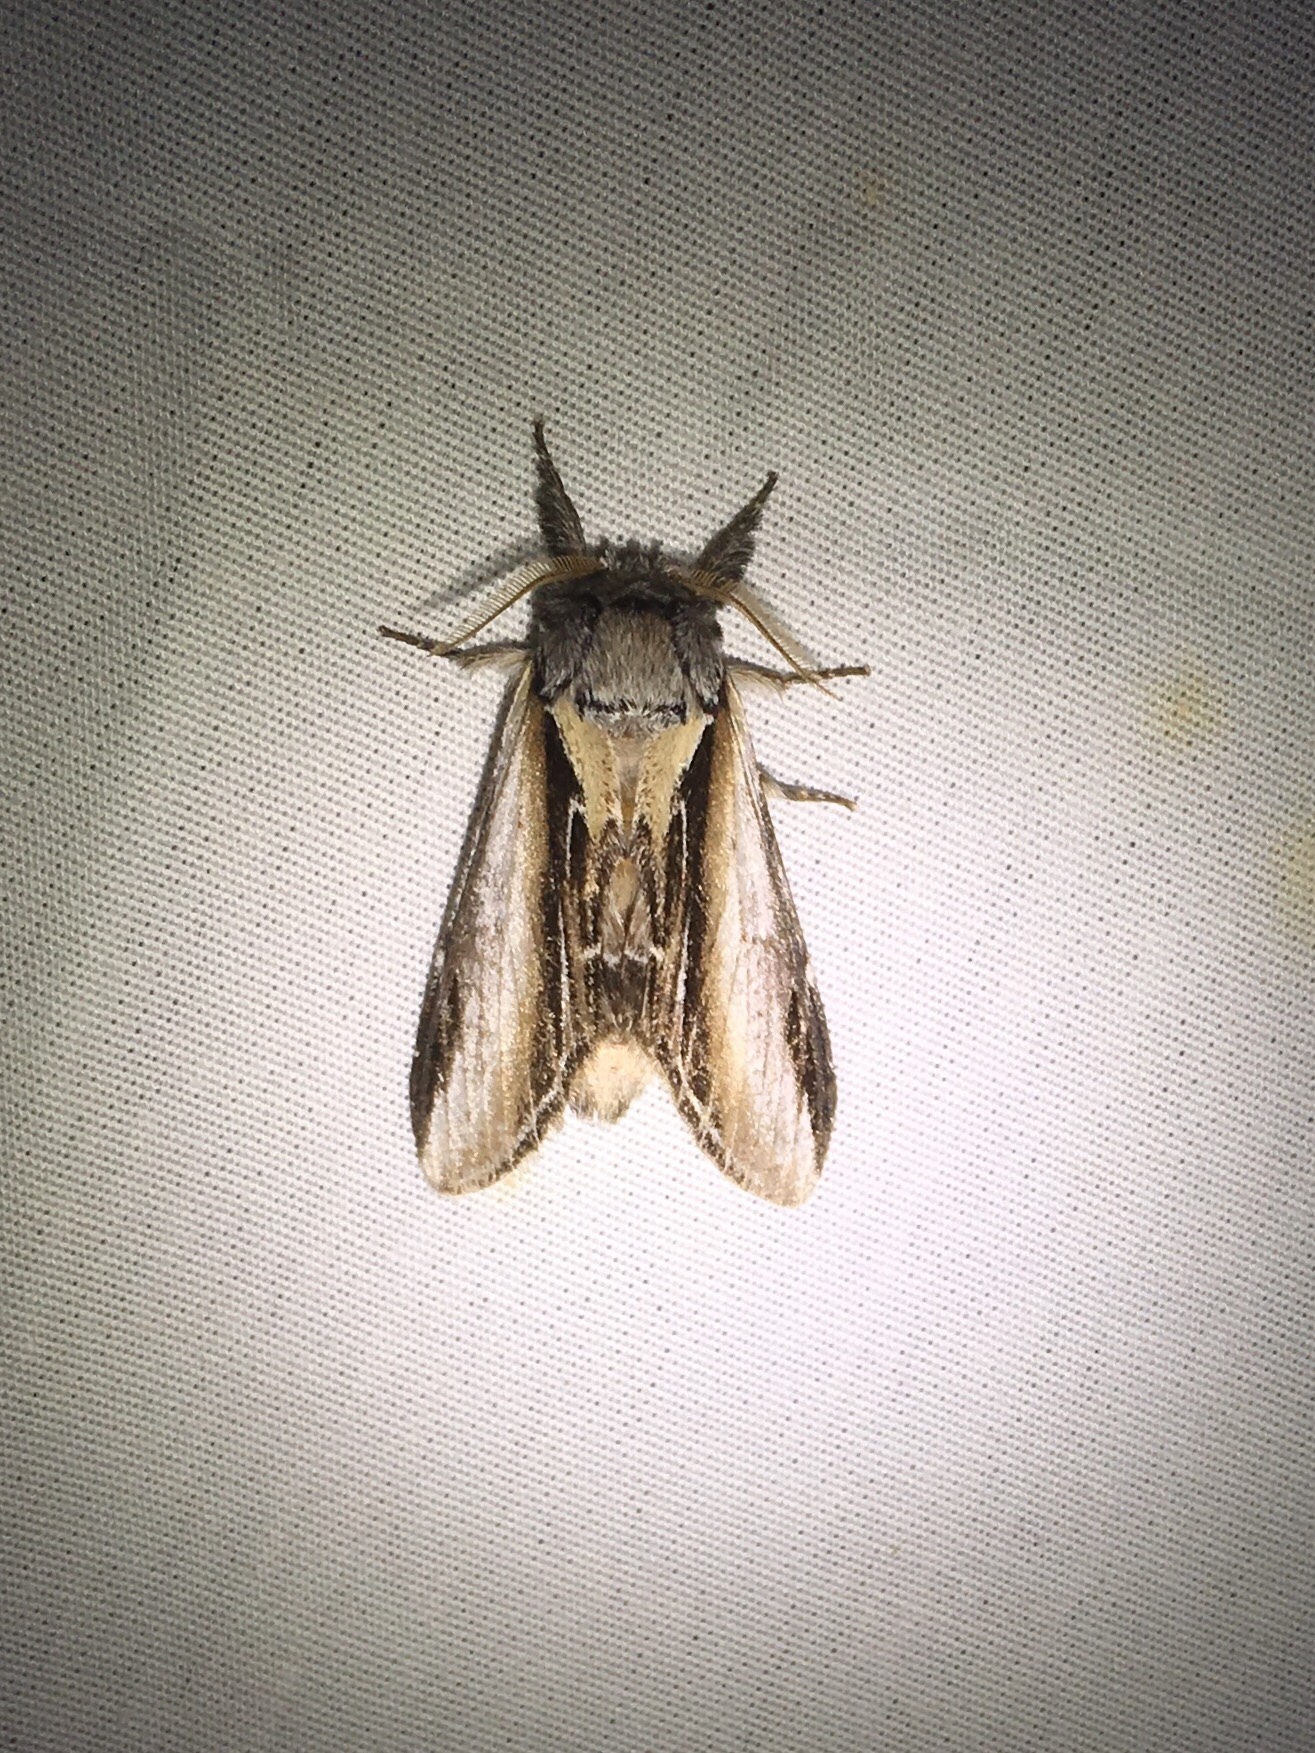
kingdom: Animalia
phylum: Arthropoda
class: Insecta
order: Lepidoptera
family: Notodontidae
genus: Pheosia
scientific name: Pheosia rimosa
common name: Black-rimmed prominent
